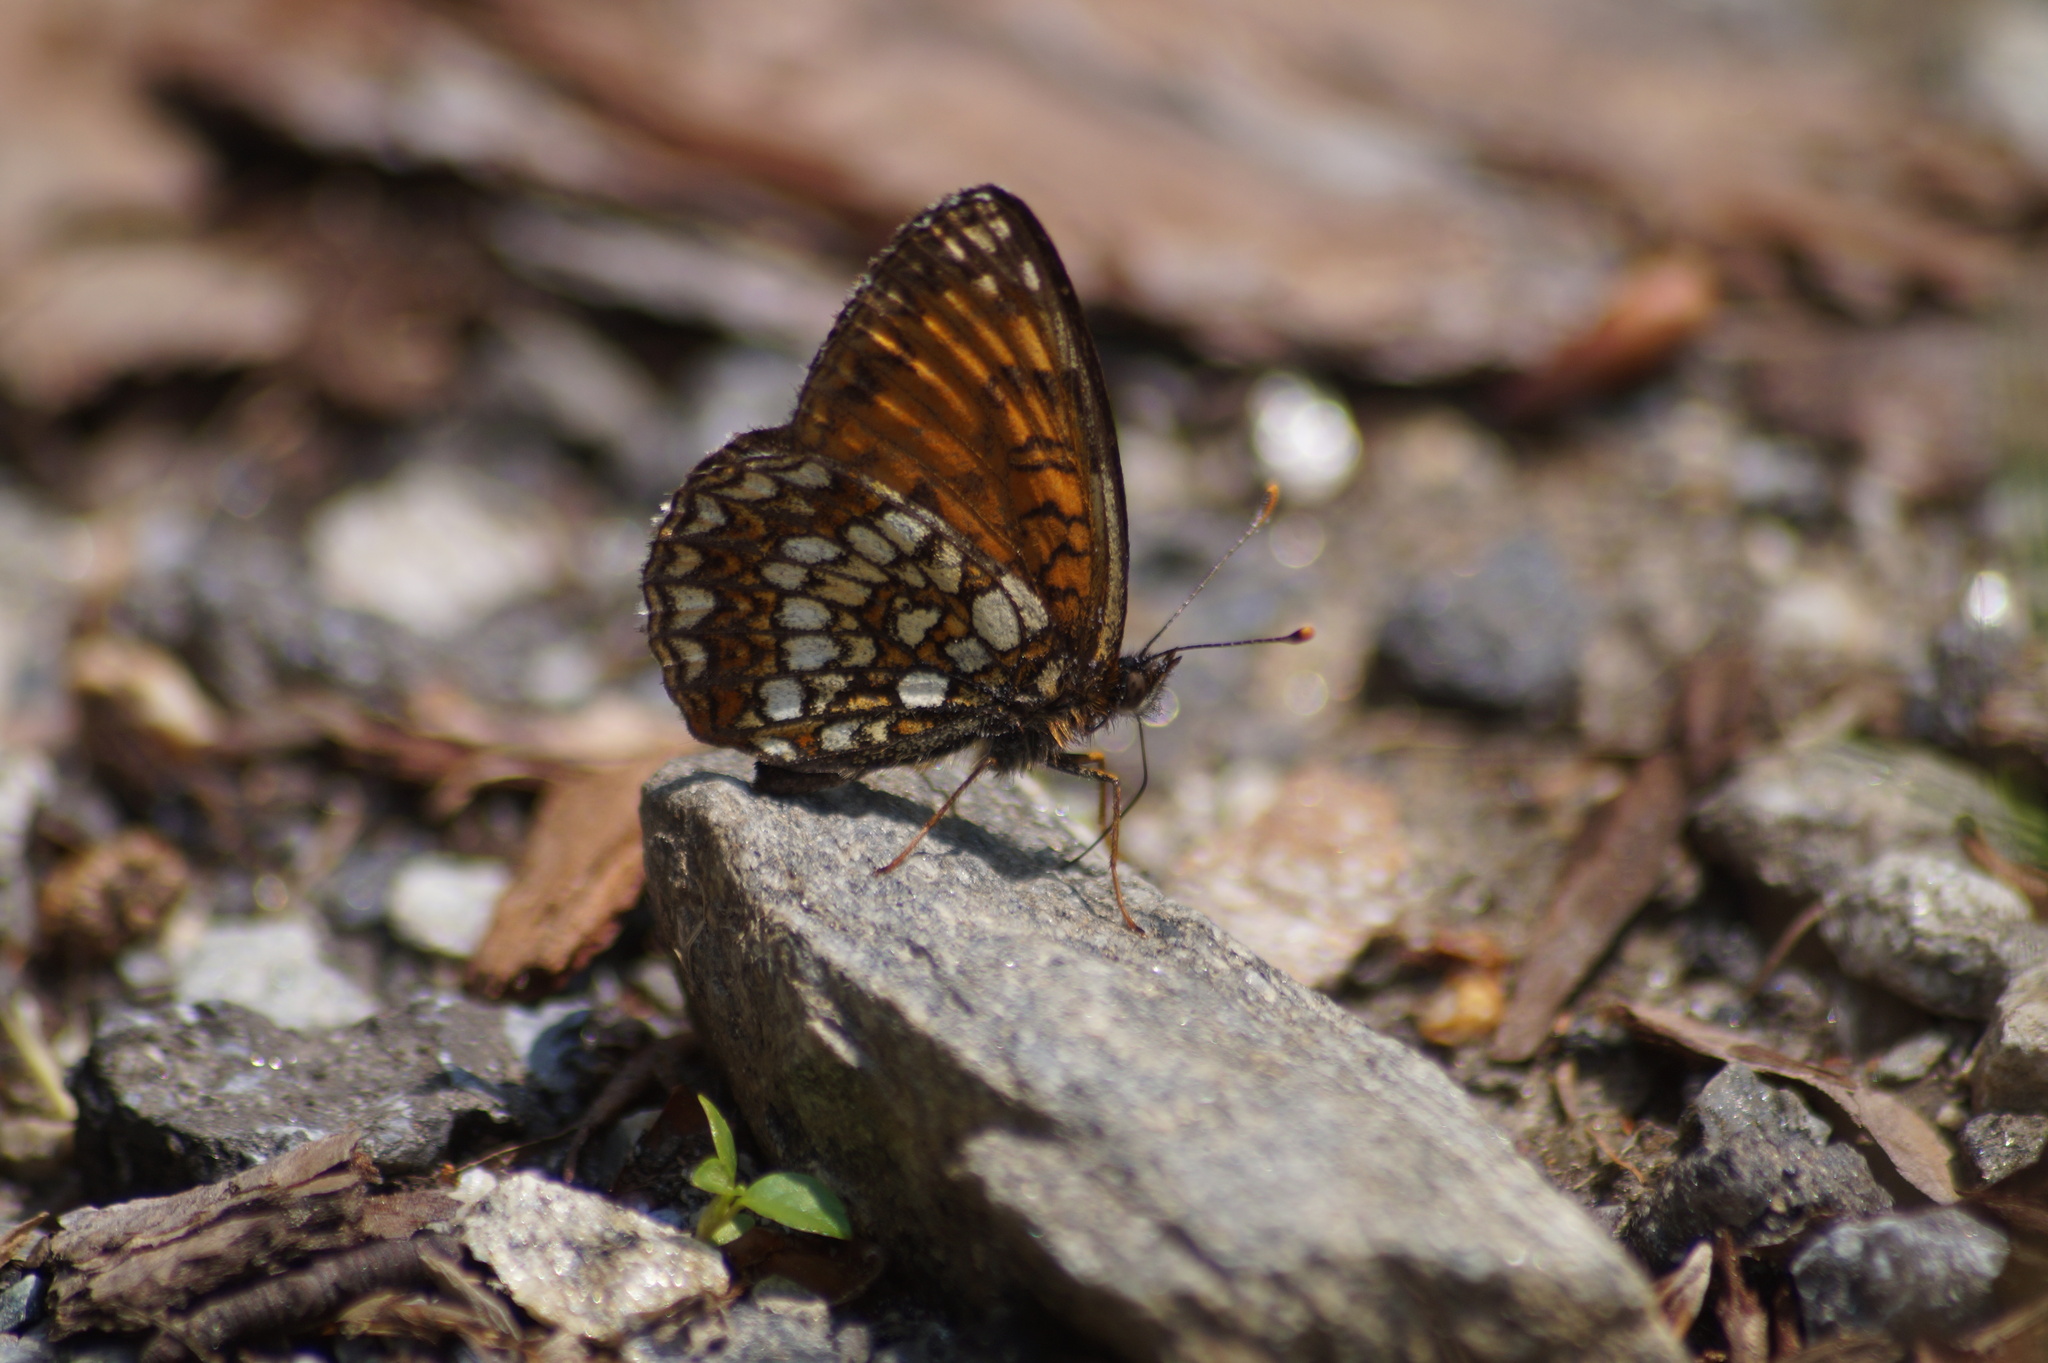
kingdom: Animalia
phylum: Arthropoda
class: Insecta
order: Lepidoptera
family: Nymphalidae
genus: Melitaea
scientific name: Melitaea diamina
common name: False heath fritillary
